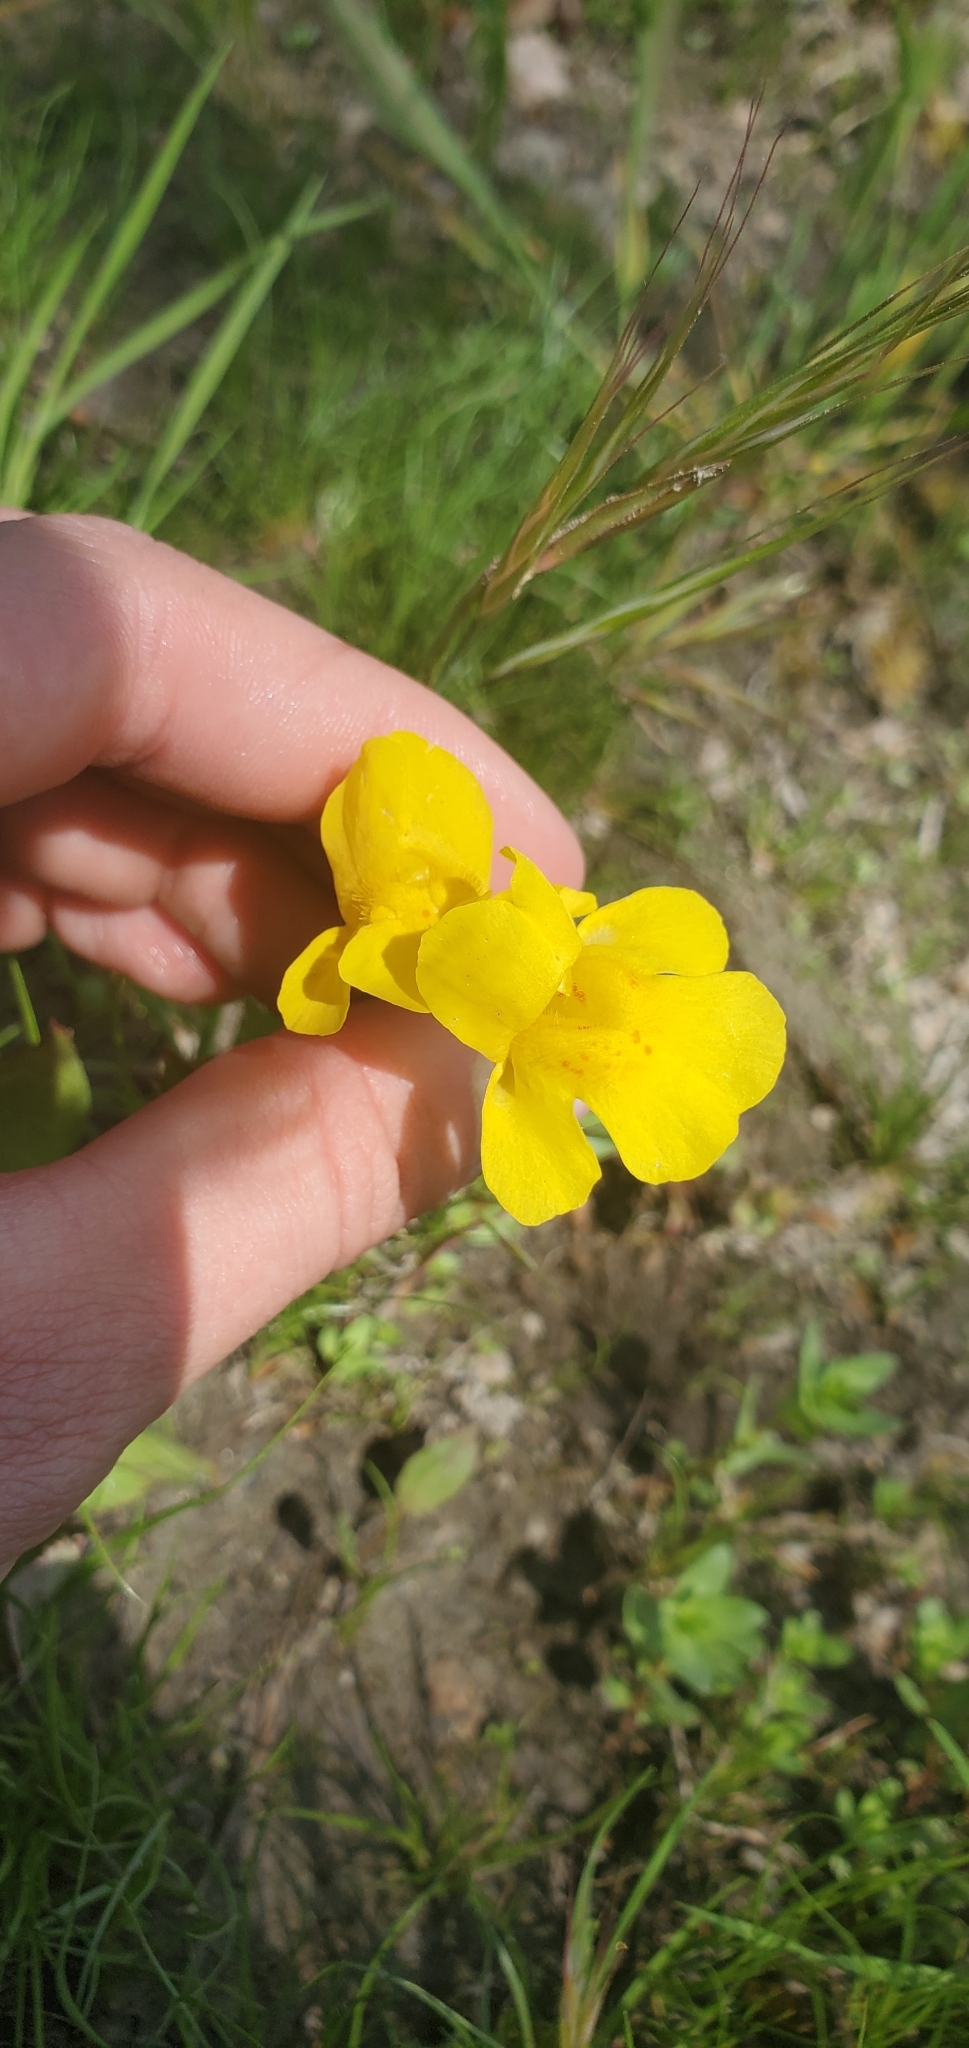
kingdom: Plantae
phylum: Tracheophyta
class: Magnoliopsida
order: Lamiales
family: Phrymaceae
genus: Erythranthe
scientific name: Erythranthe guttata
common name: Monkeyflower
